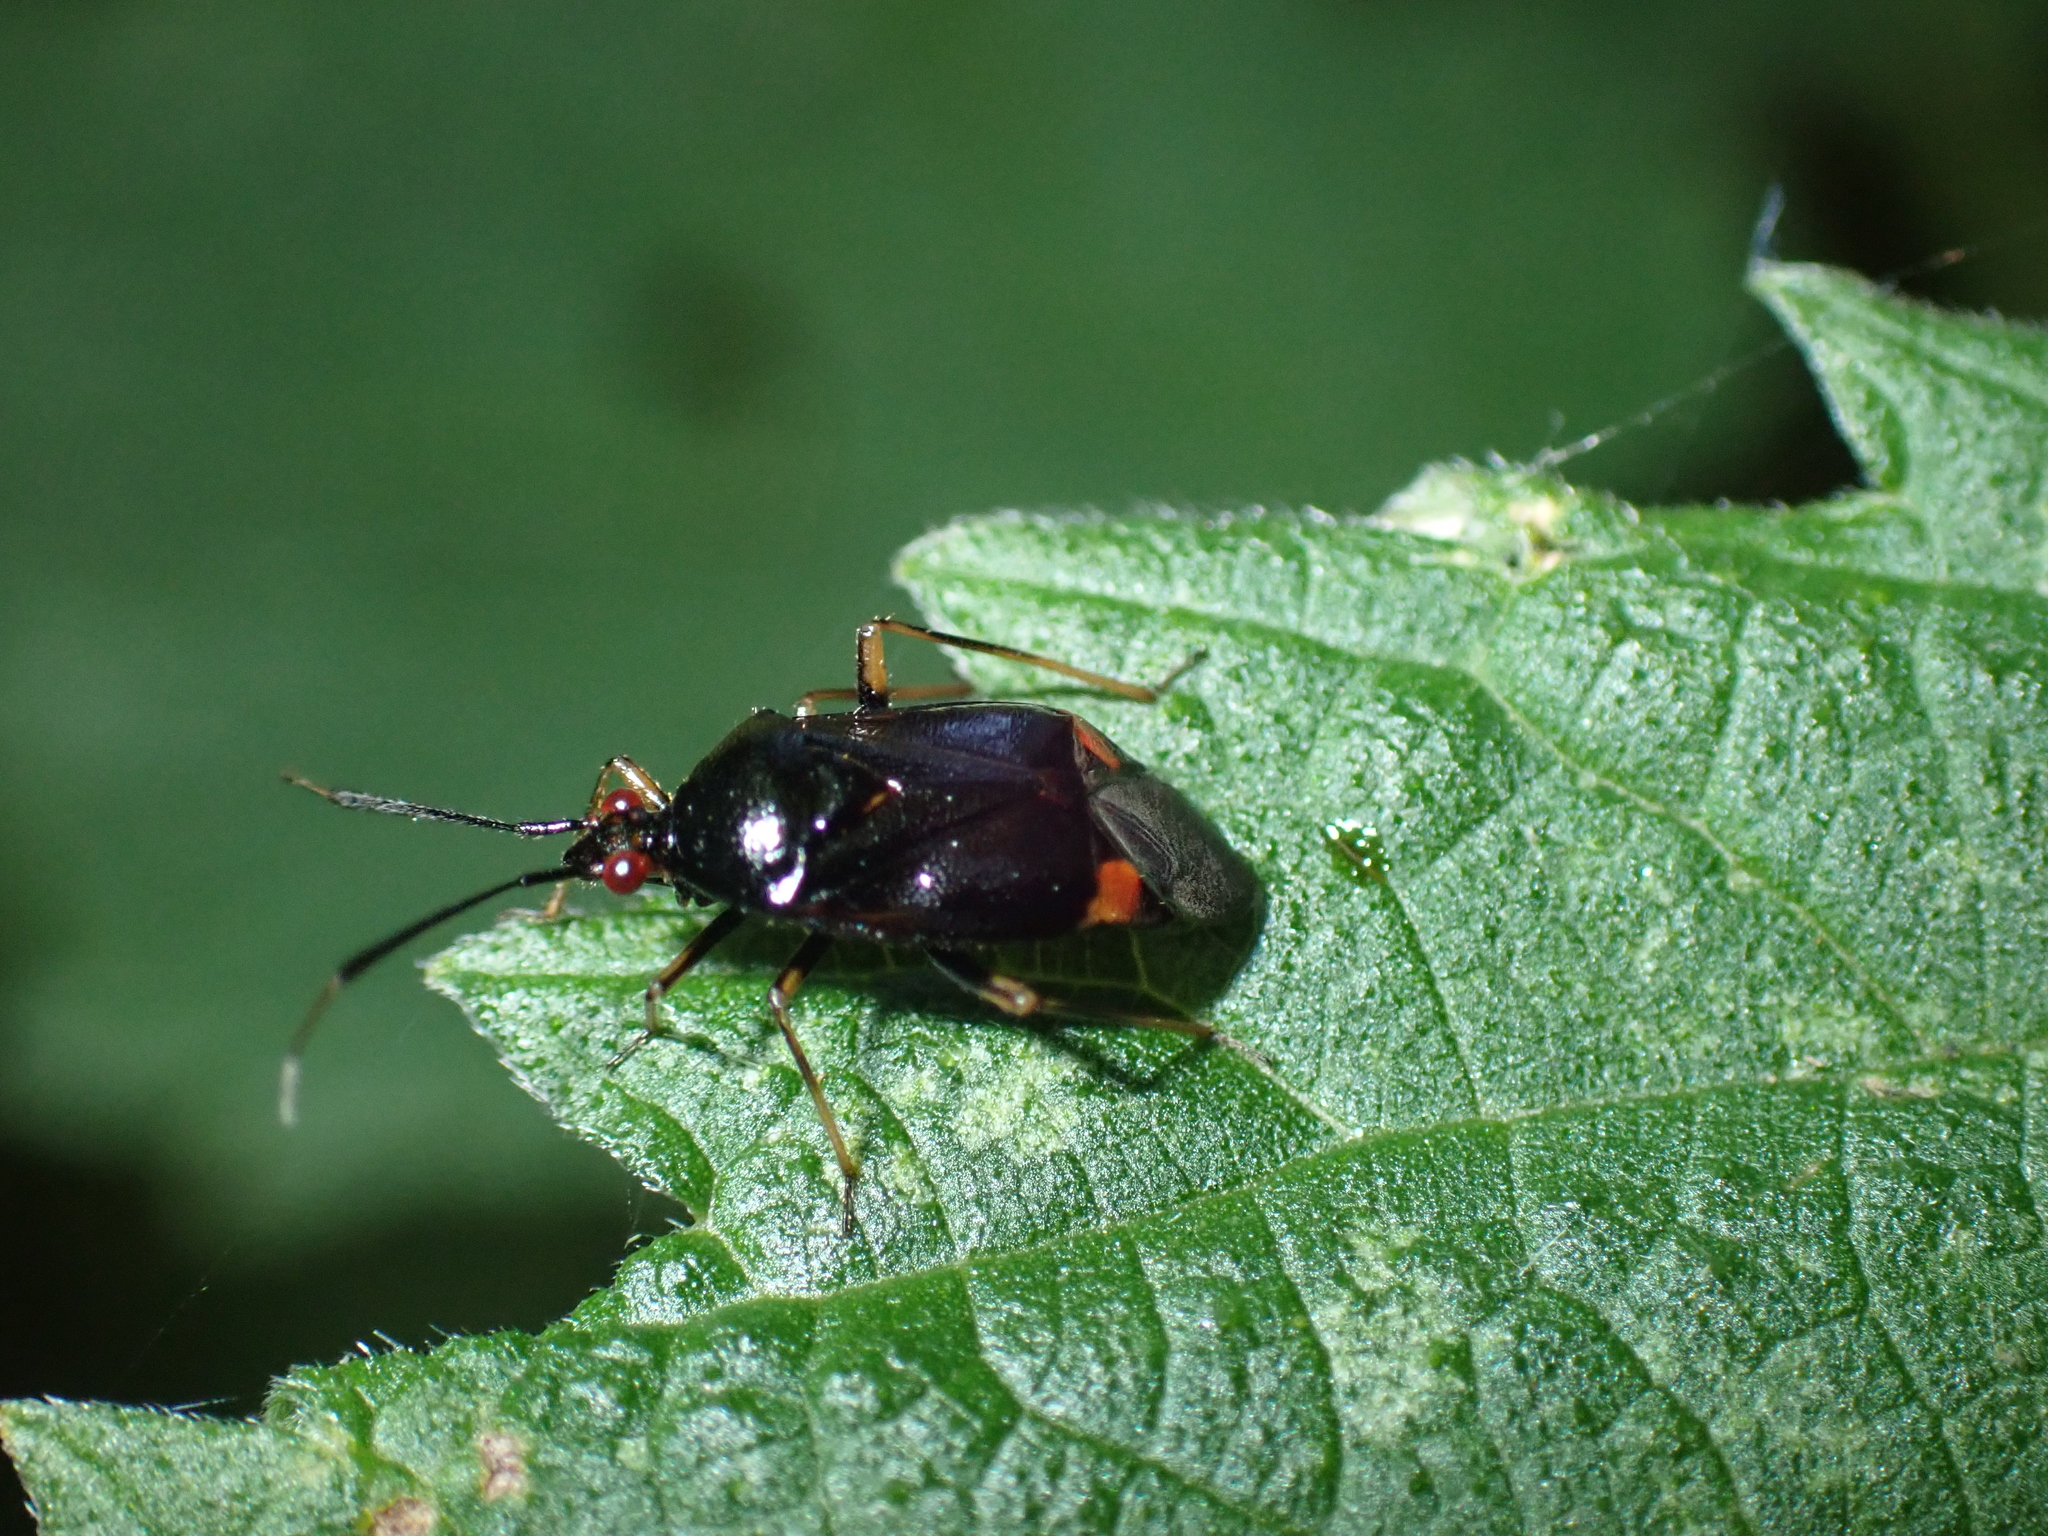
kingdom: Animalia
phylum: Arthropoda
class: Insecta
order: Hemiptera
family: Miridae
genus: Deraeocoris
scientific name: Deraeocoris ruber
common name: Plant bug
